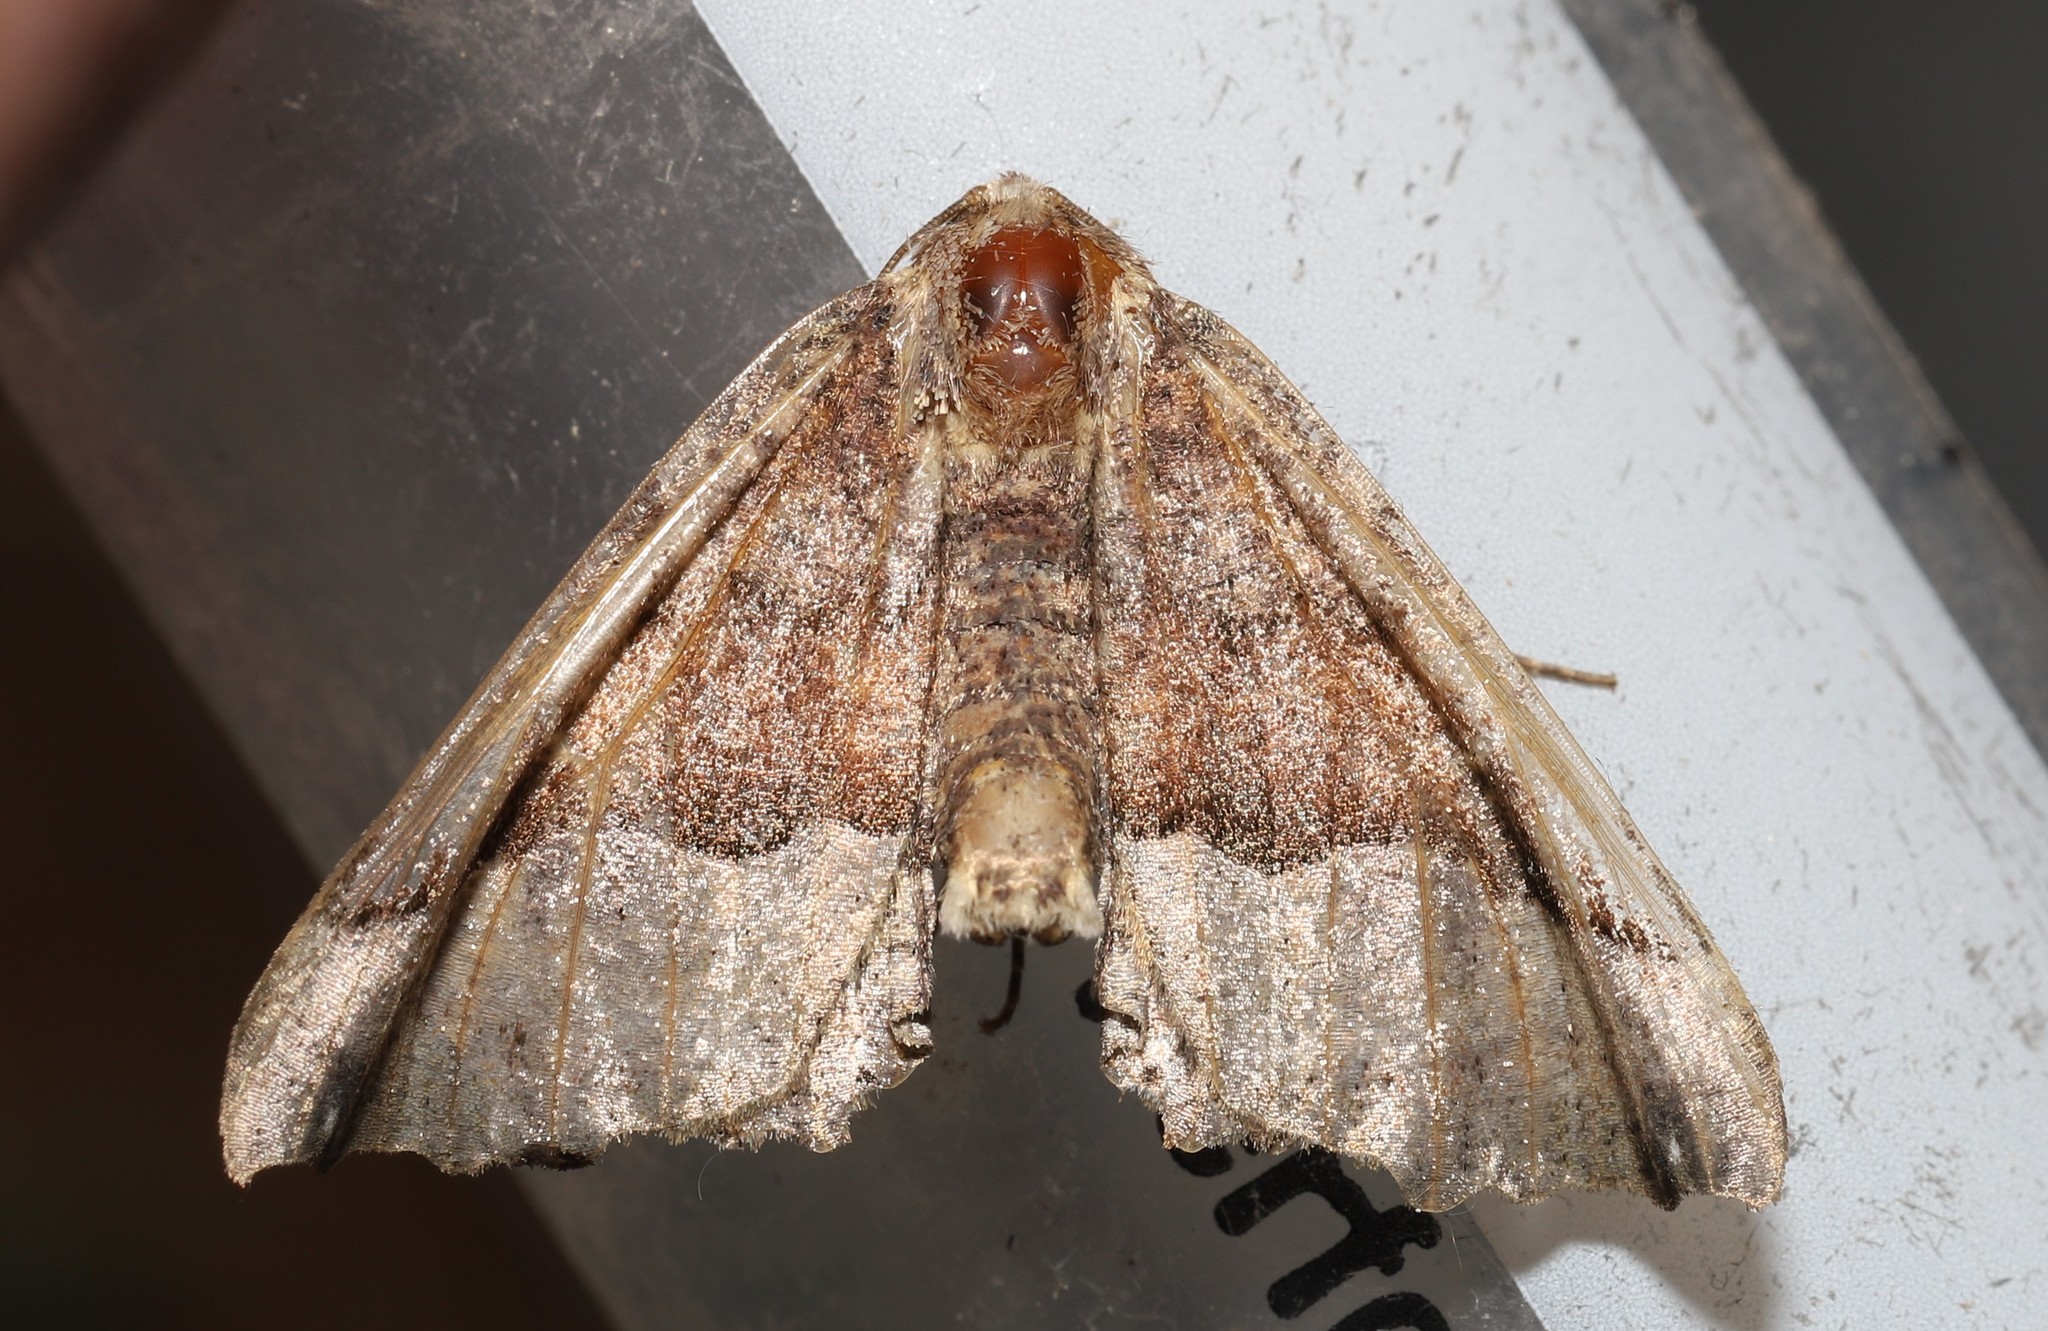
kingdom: Animalia
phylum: Arthropoda
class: Insecta
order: Lepidoptera
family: Geometridae
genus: Pero
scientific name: Pero morrisonaria
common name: Morrison's pero
